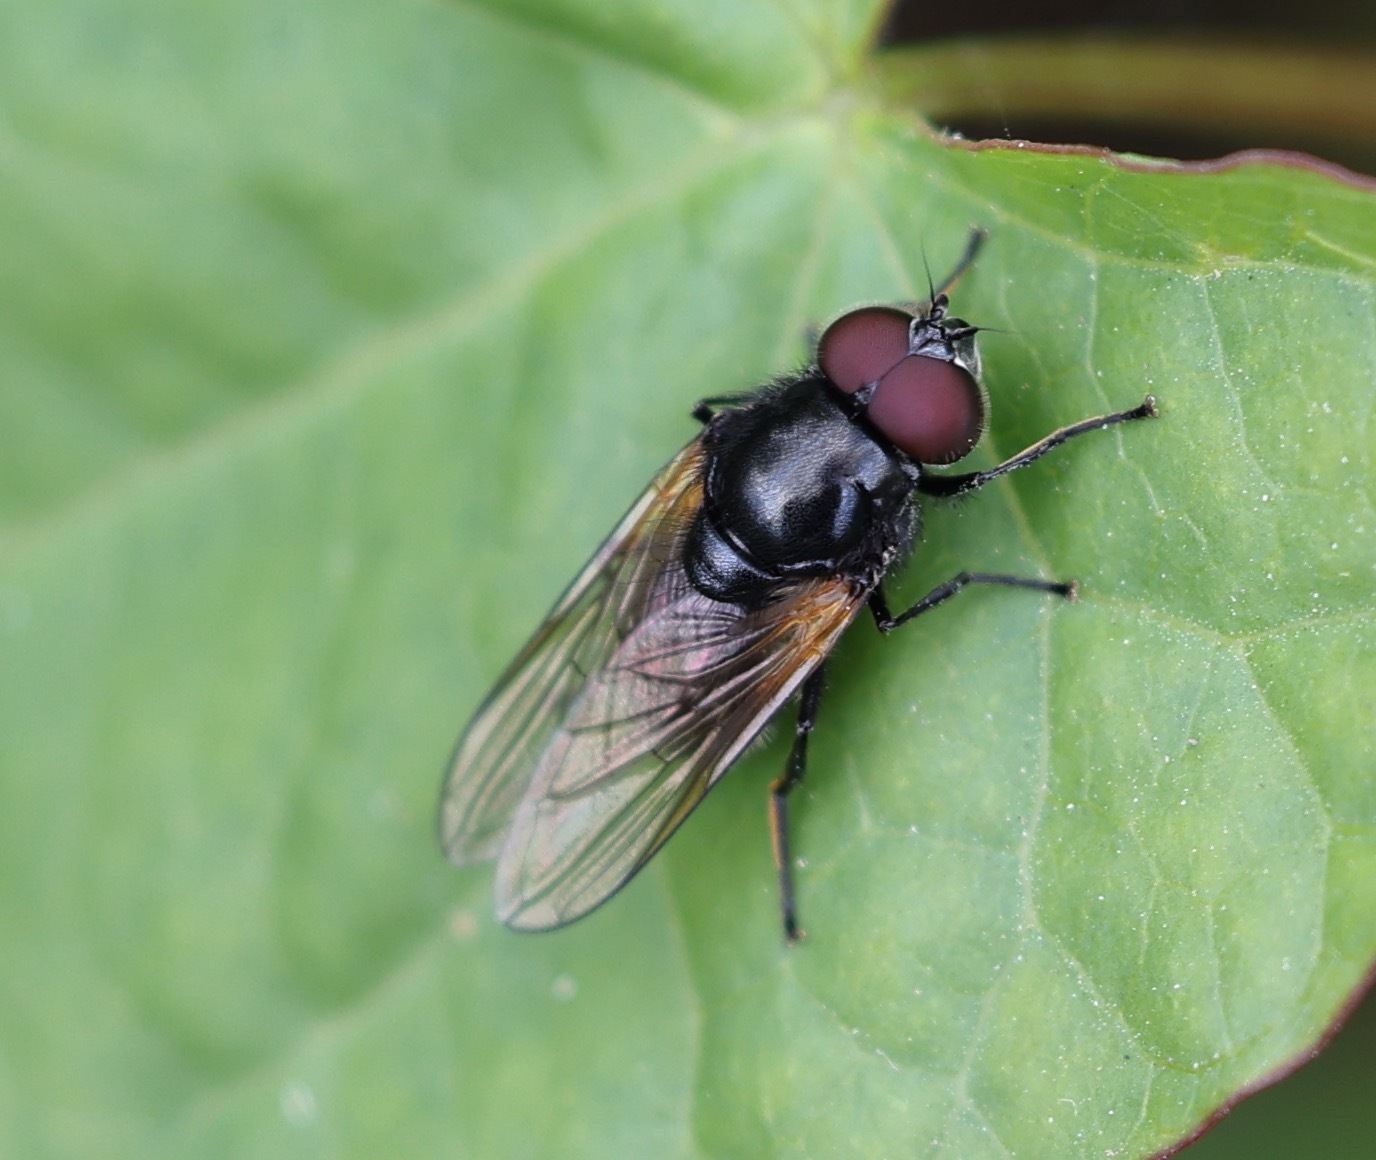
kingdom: Animalia
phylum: Arthropoda
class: Insecta
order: Diptera
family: Syrphidae
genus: Cheilosia
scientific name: Cheilosia impressa
